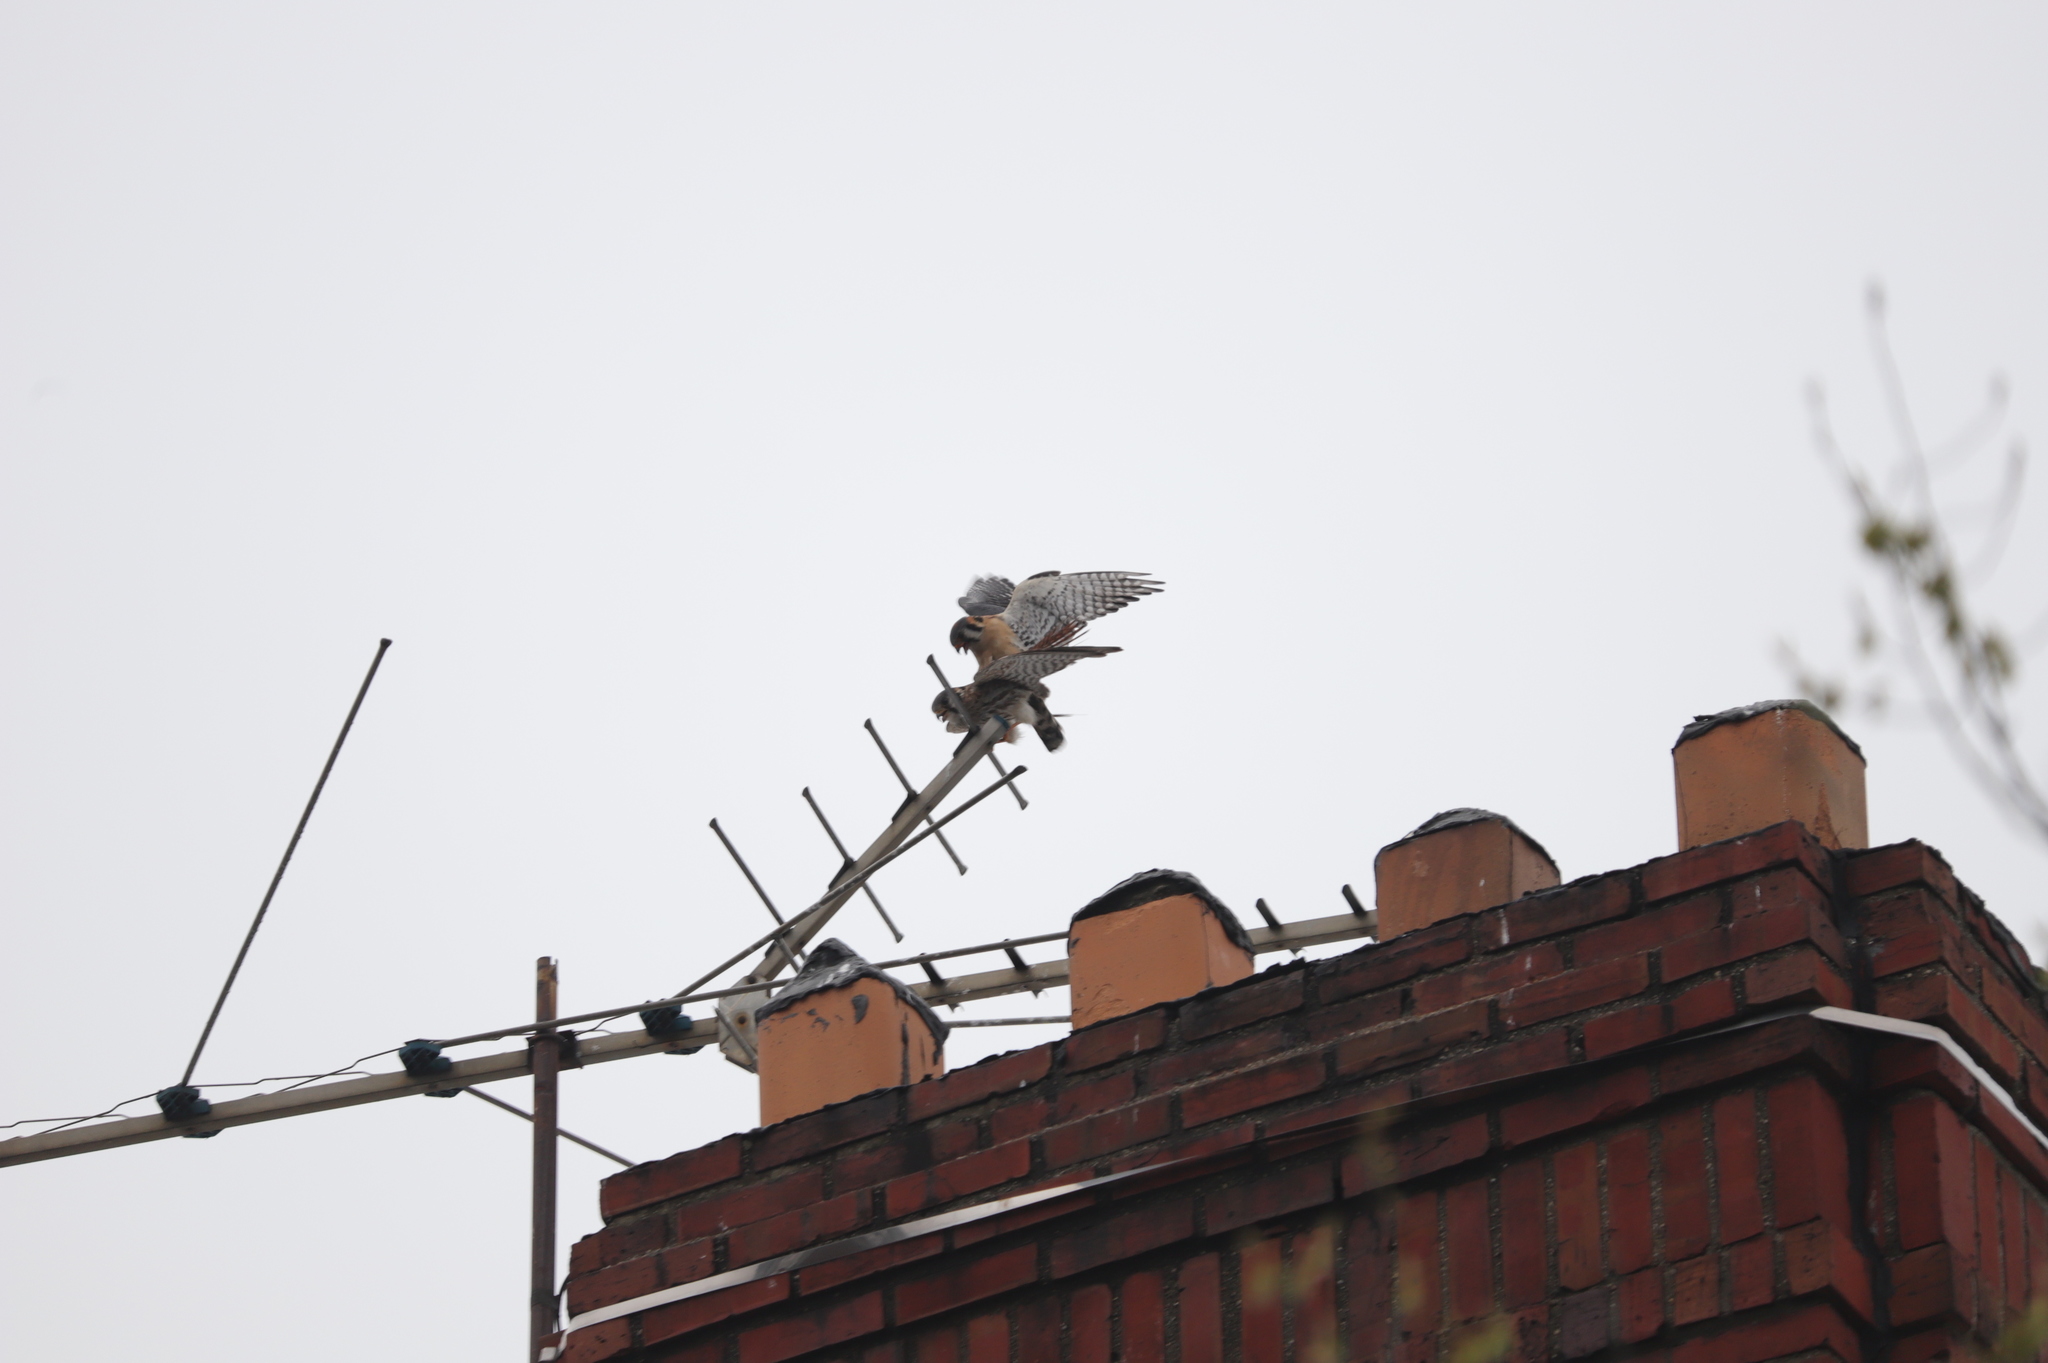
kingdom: Animalia
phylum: Chordata
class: Aves
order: Falconiformes
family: Falconidae
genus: Falco
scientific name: Falco sparverius
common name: American kestrel
